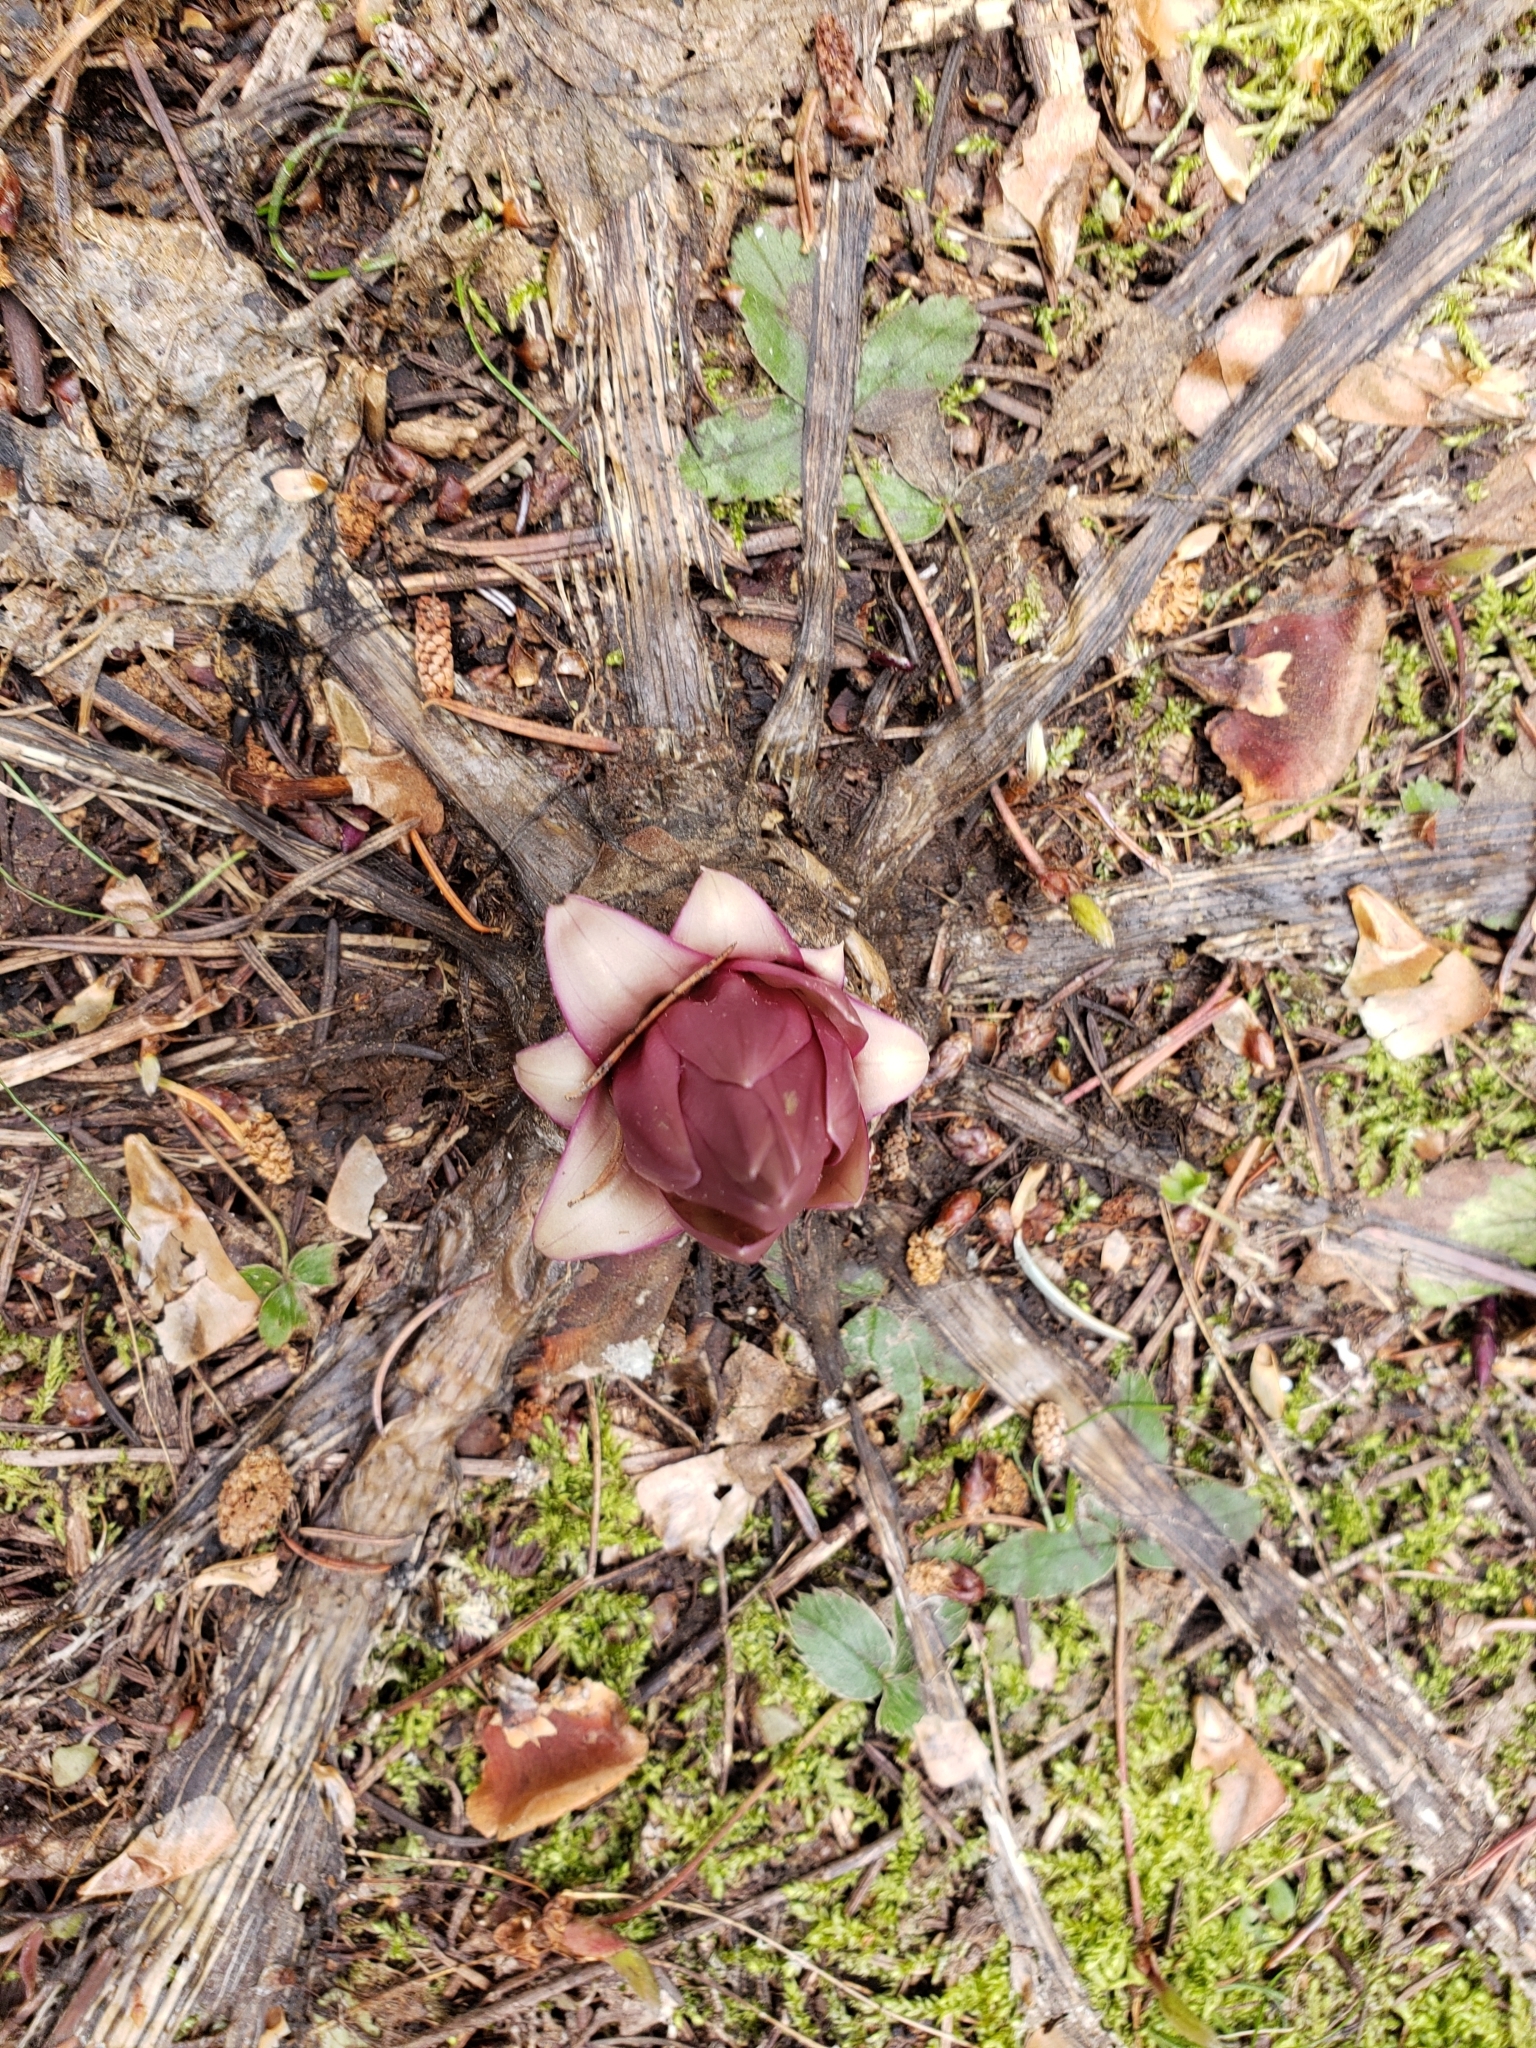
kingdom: Plantae
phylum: Tracheophyta
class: Magnoliopsida
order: Gentianales
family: Gentianaceae
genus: Frasera
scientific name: Frasera fastigiata
